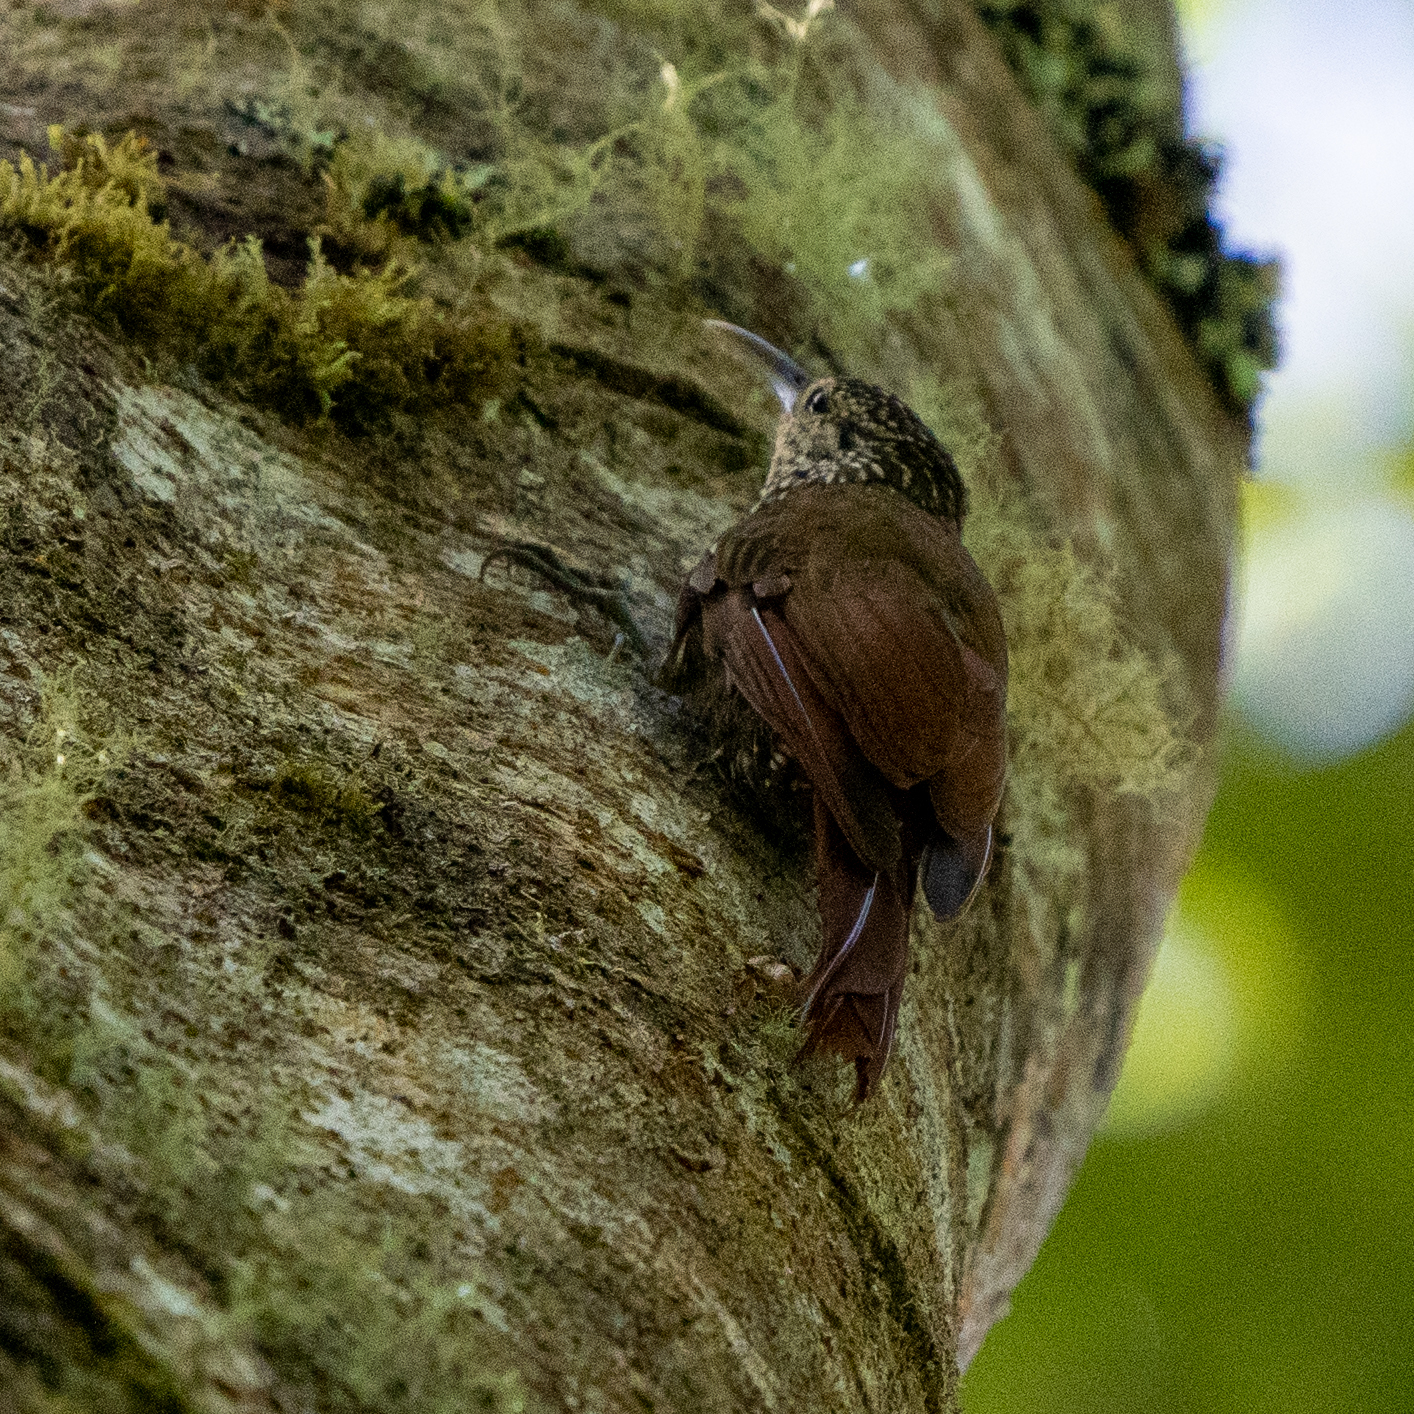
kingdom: Animalia
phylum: Chordata
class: Aves
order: Passeriformes
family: Furnariidae
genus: Lepidocolaptes
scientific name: Lepidocolaptes affinis
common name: Spot-crowned woodcreeper
